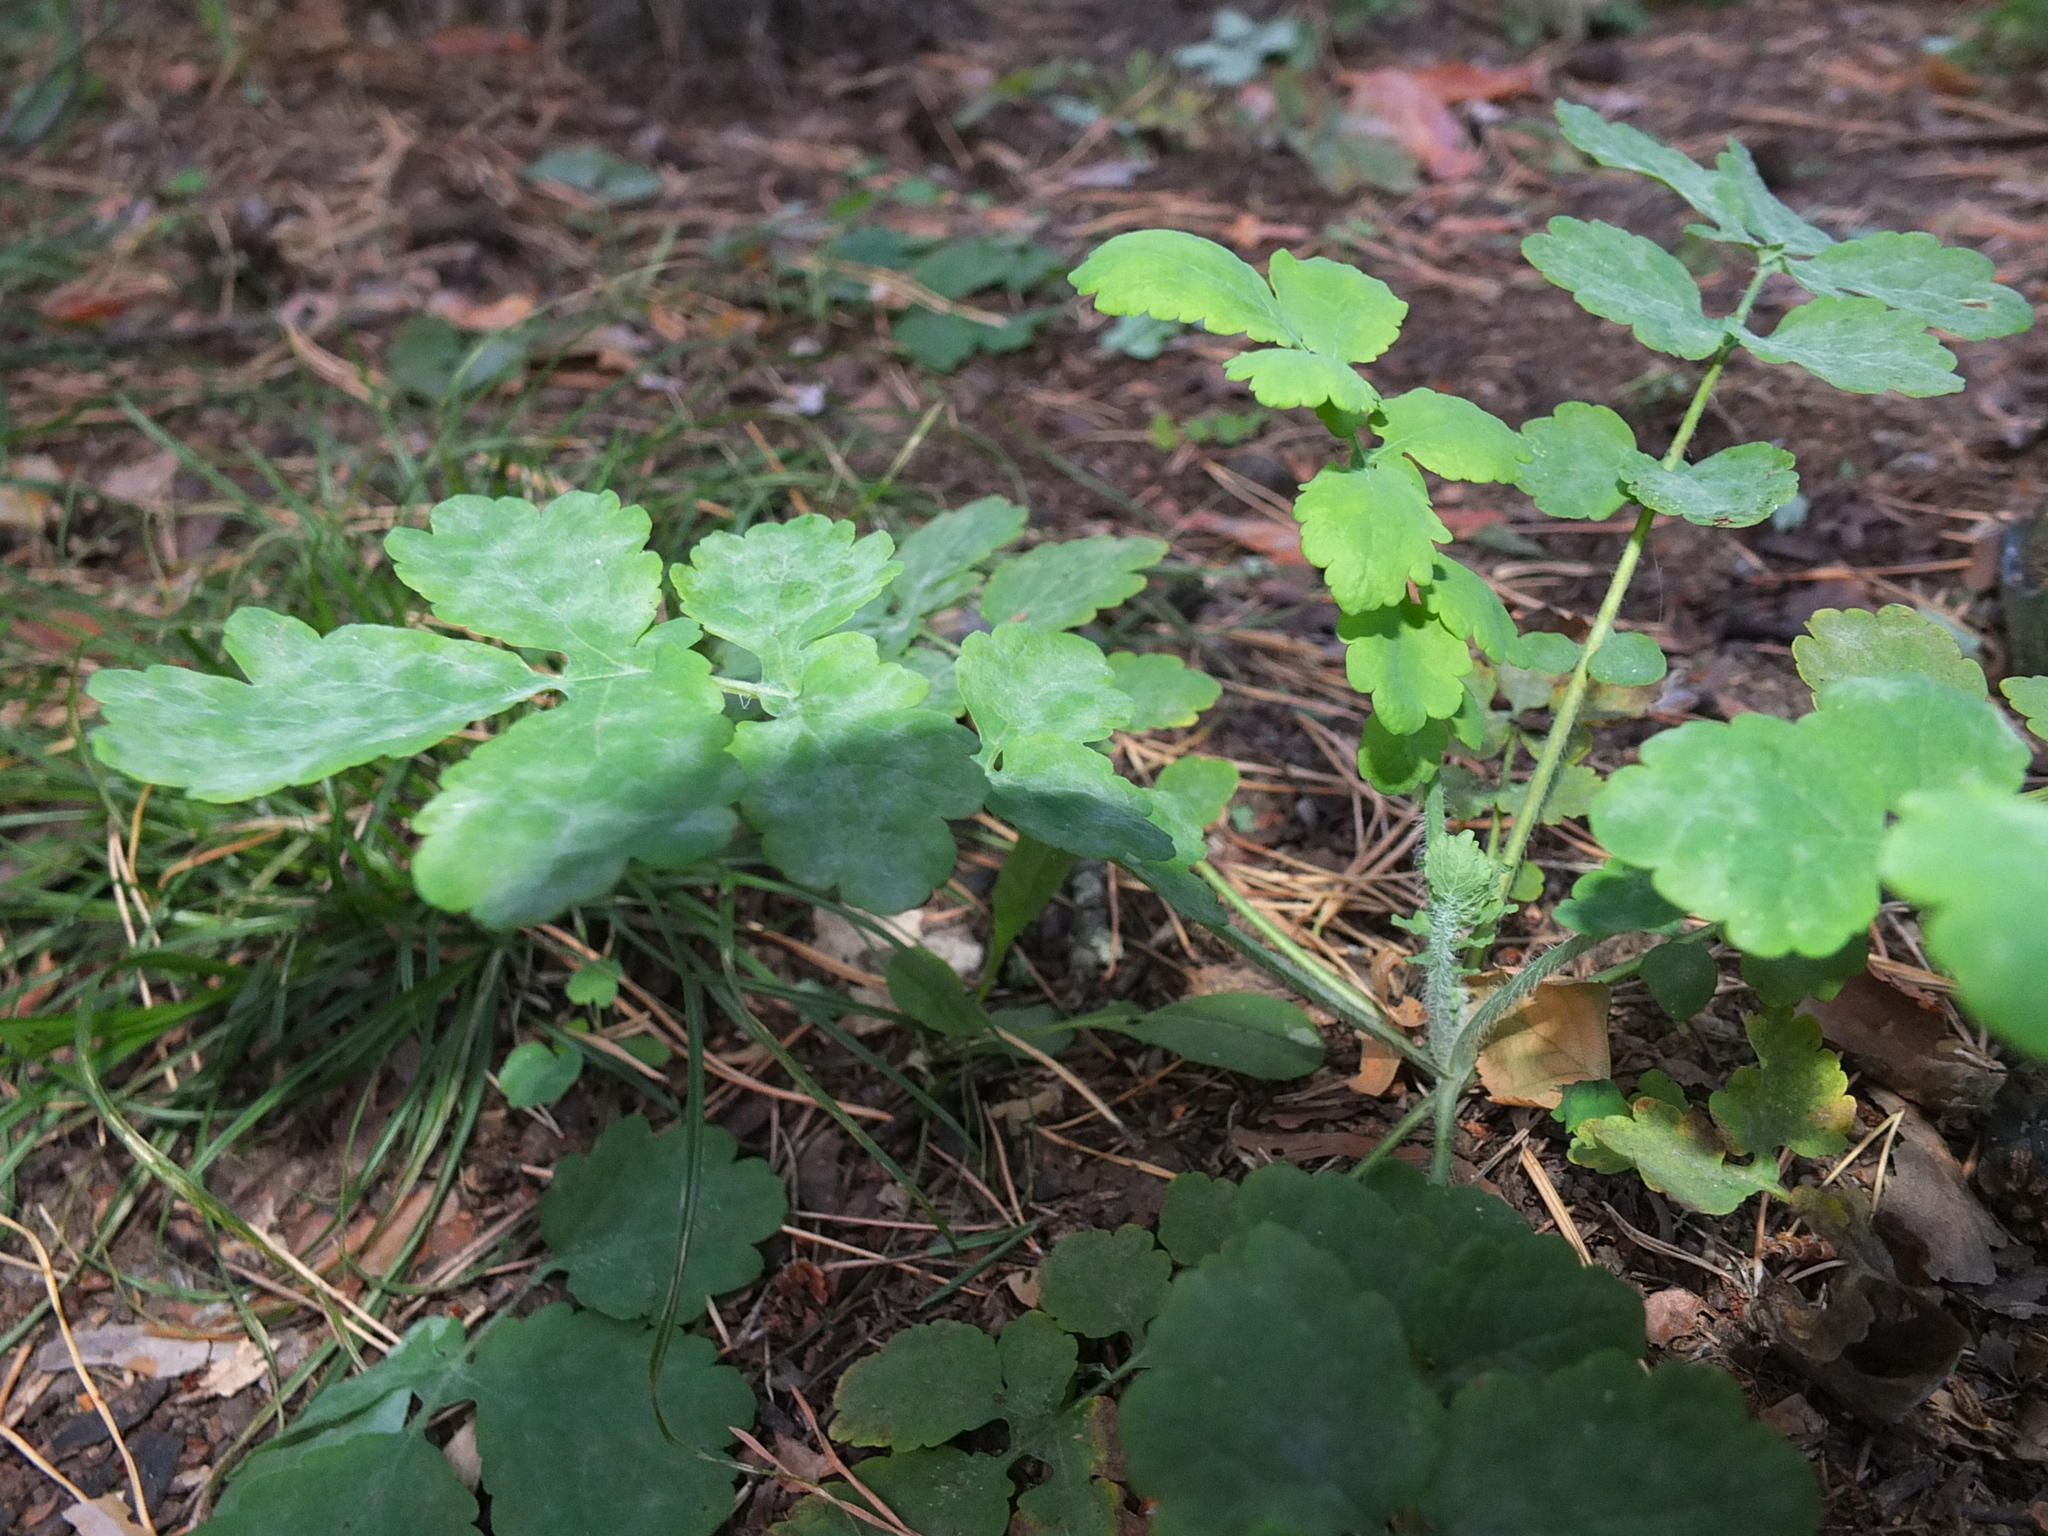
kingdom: Plantae
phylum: Tracheophyta
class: Magnoliopsida
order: Ranunculales
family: Papaveraceae
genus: Chelidonium
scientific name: Chelidonium majus
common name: Greater celandine
